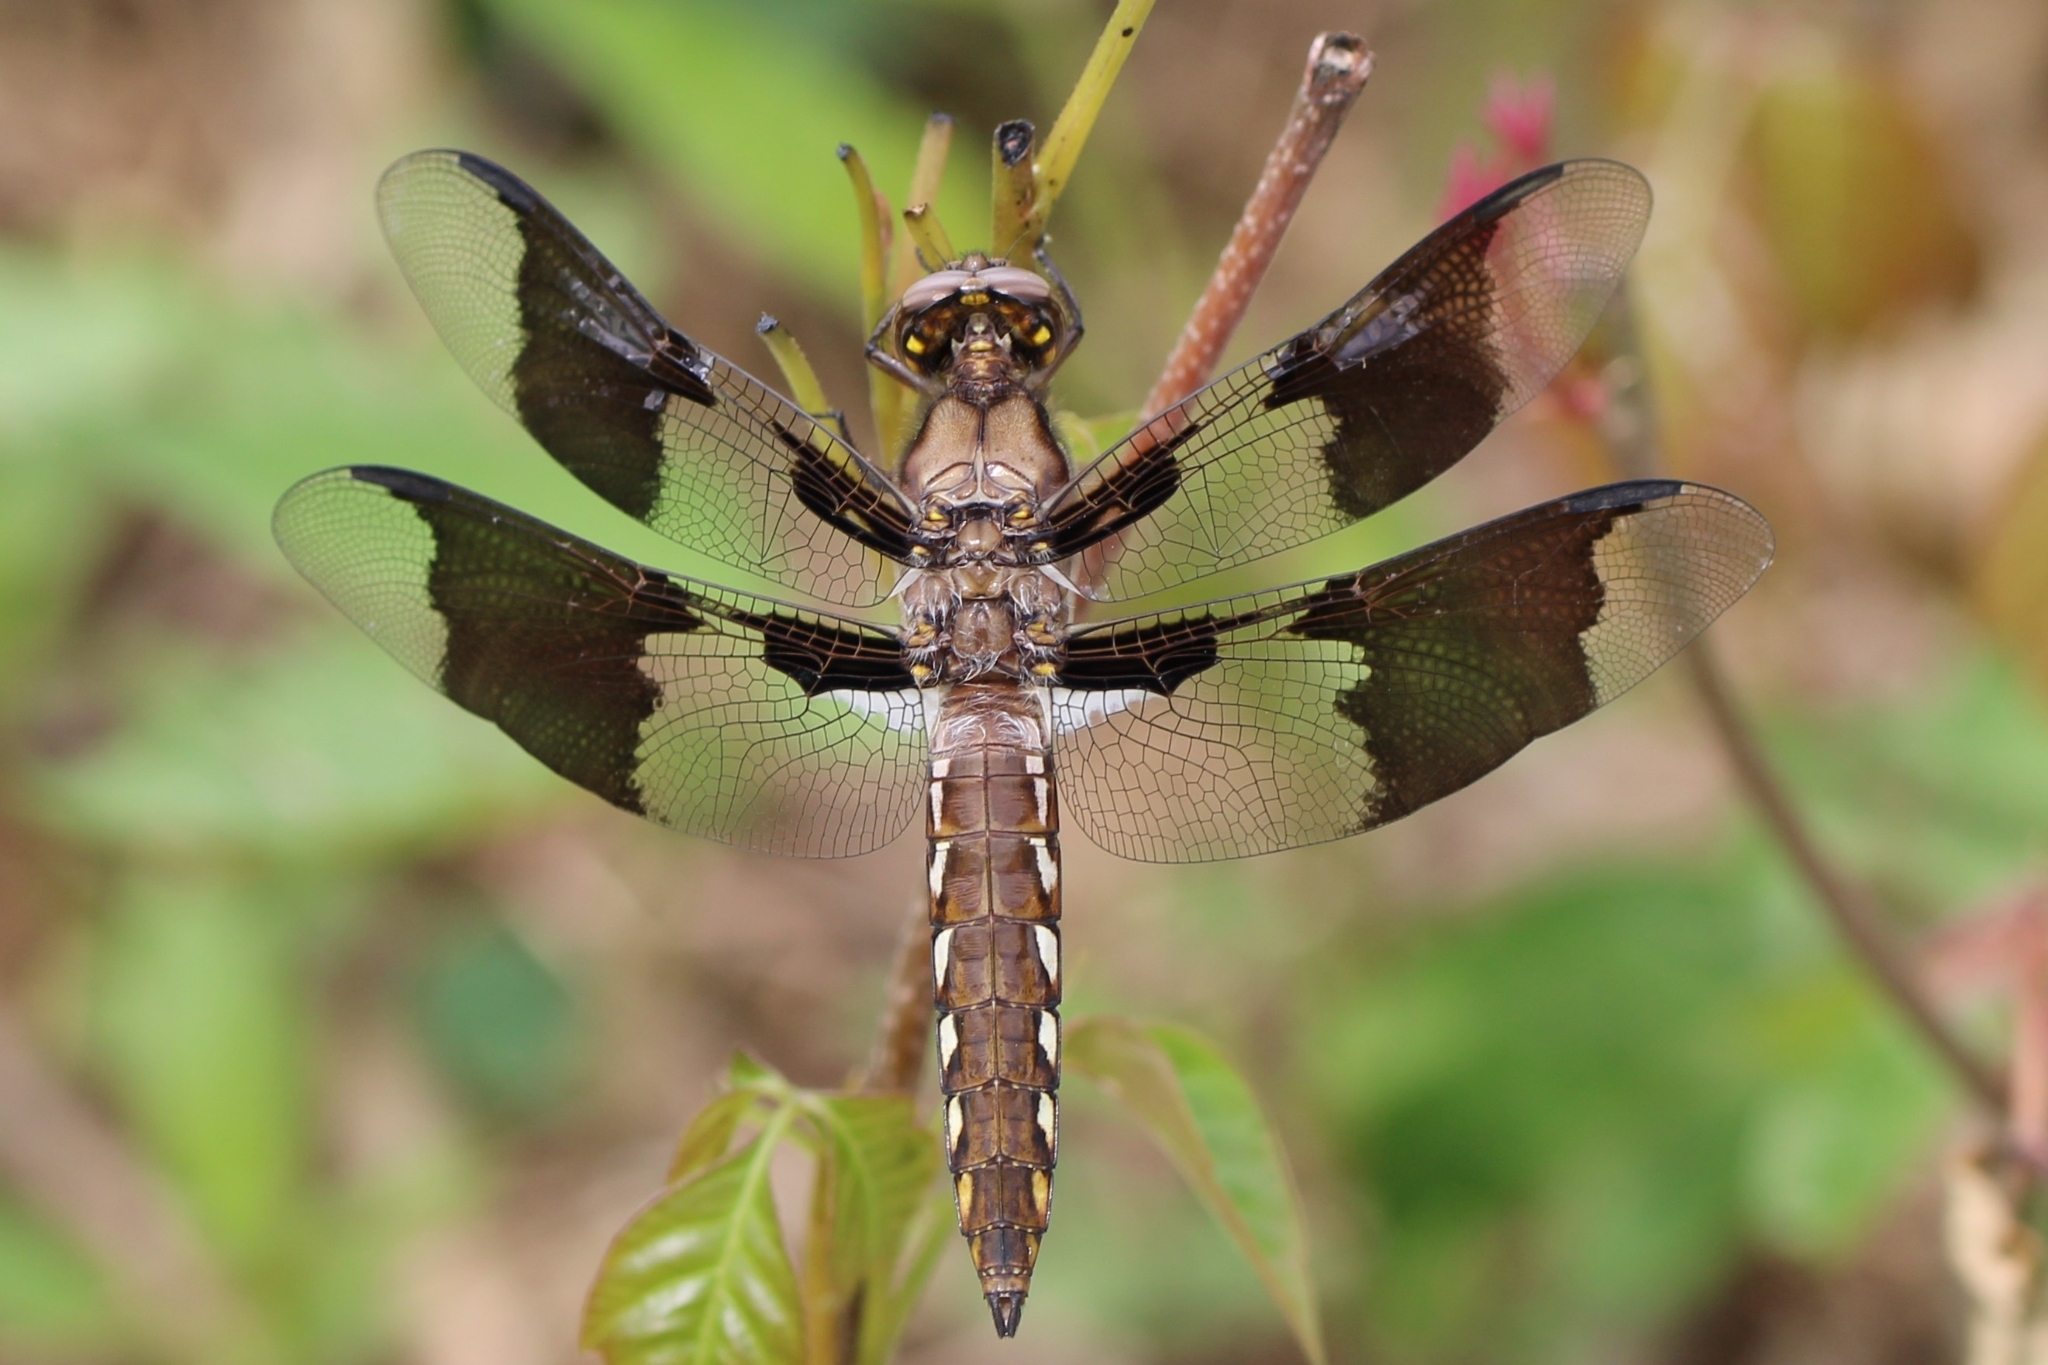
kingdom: Animalia
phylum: Arthropoda
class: Insecta
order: Odonata
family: Libellulidae
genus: Plathemis
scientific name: Plathemis lydia
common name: Common whitetail
